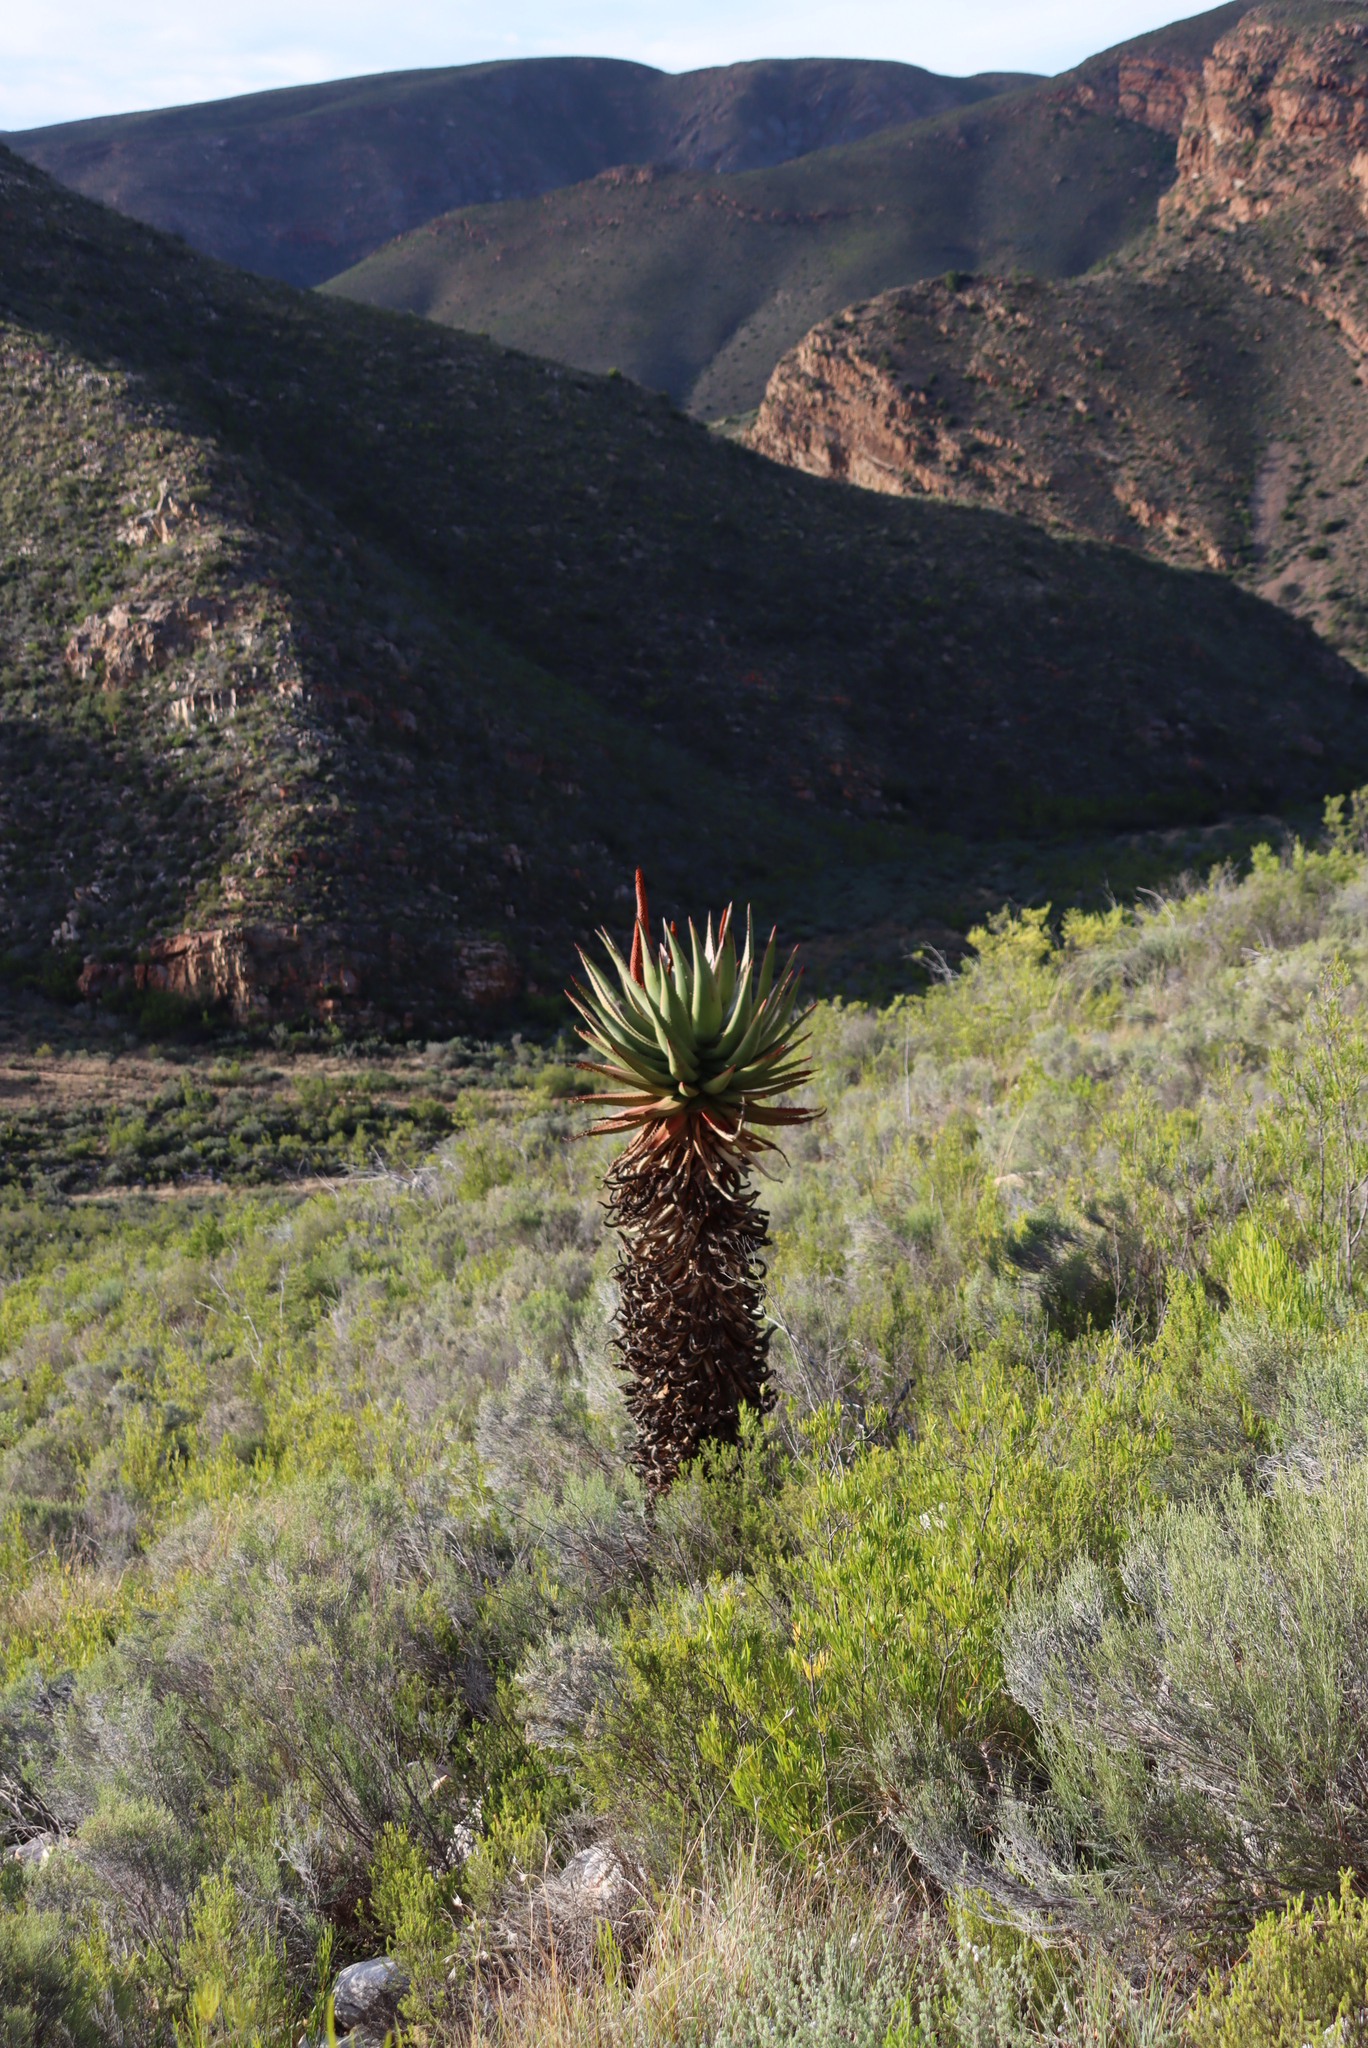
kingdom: Plantae
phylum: Tracheophyta
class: Liliopsida
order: Asparagales
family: Asphodelaceae
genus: Aloe
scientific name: Aloe ferox
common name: Bitter aloe
